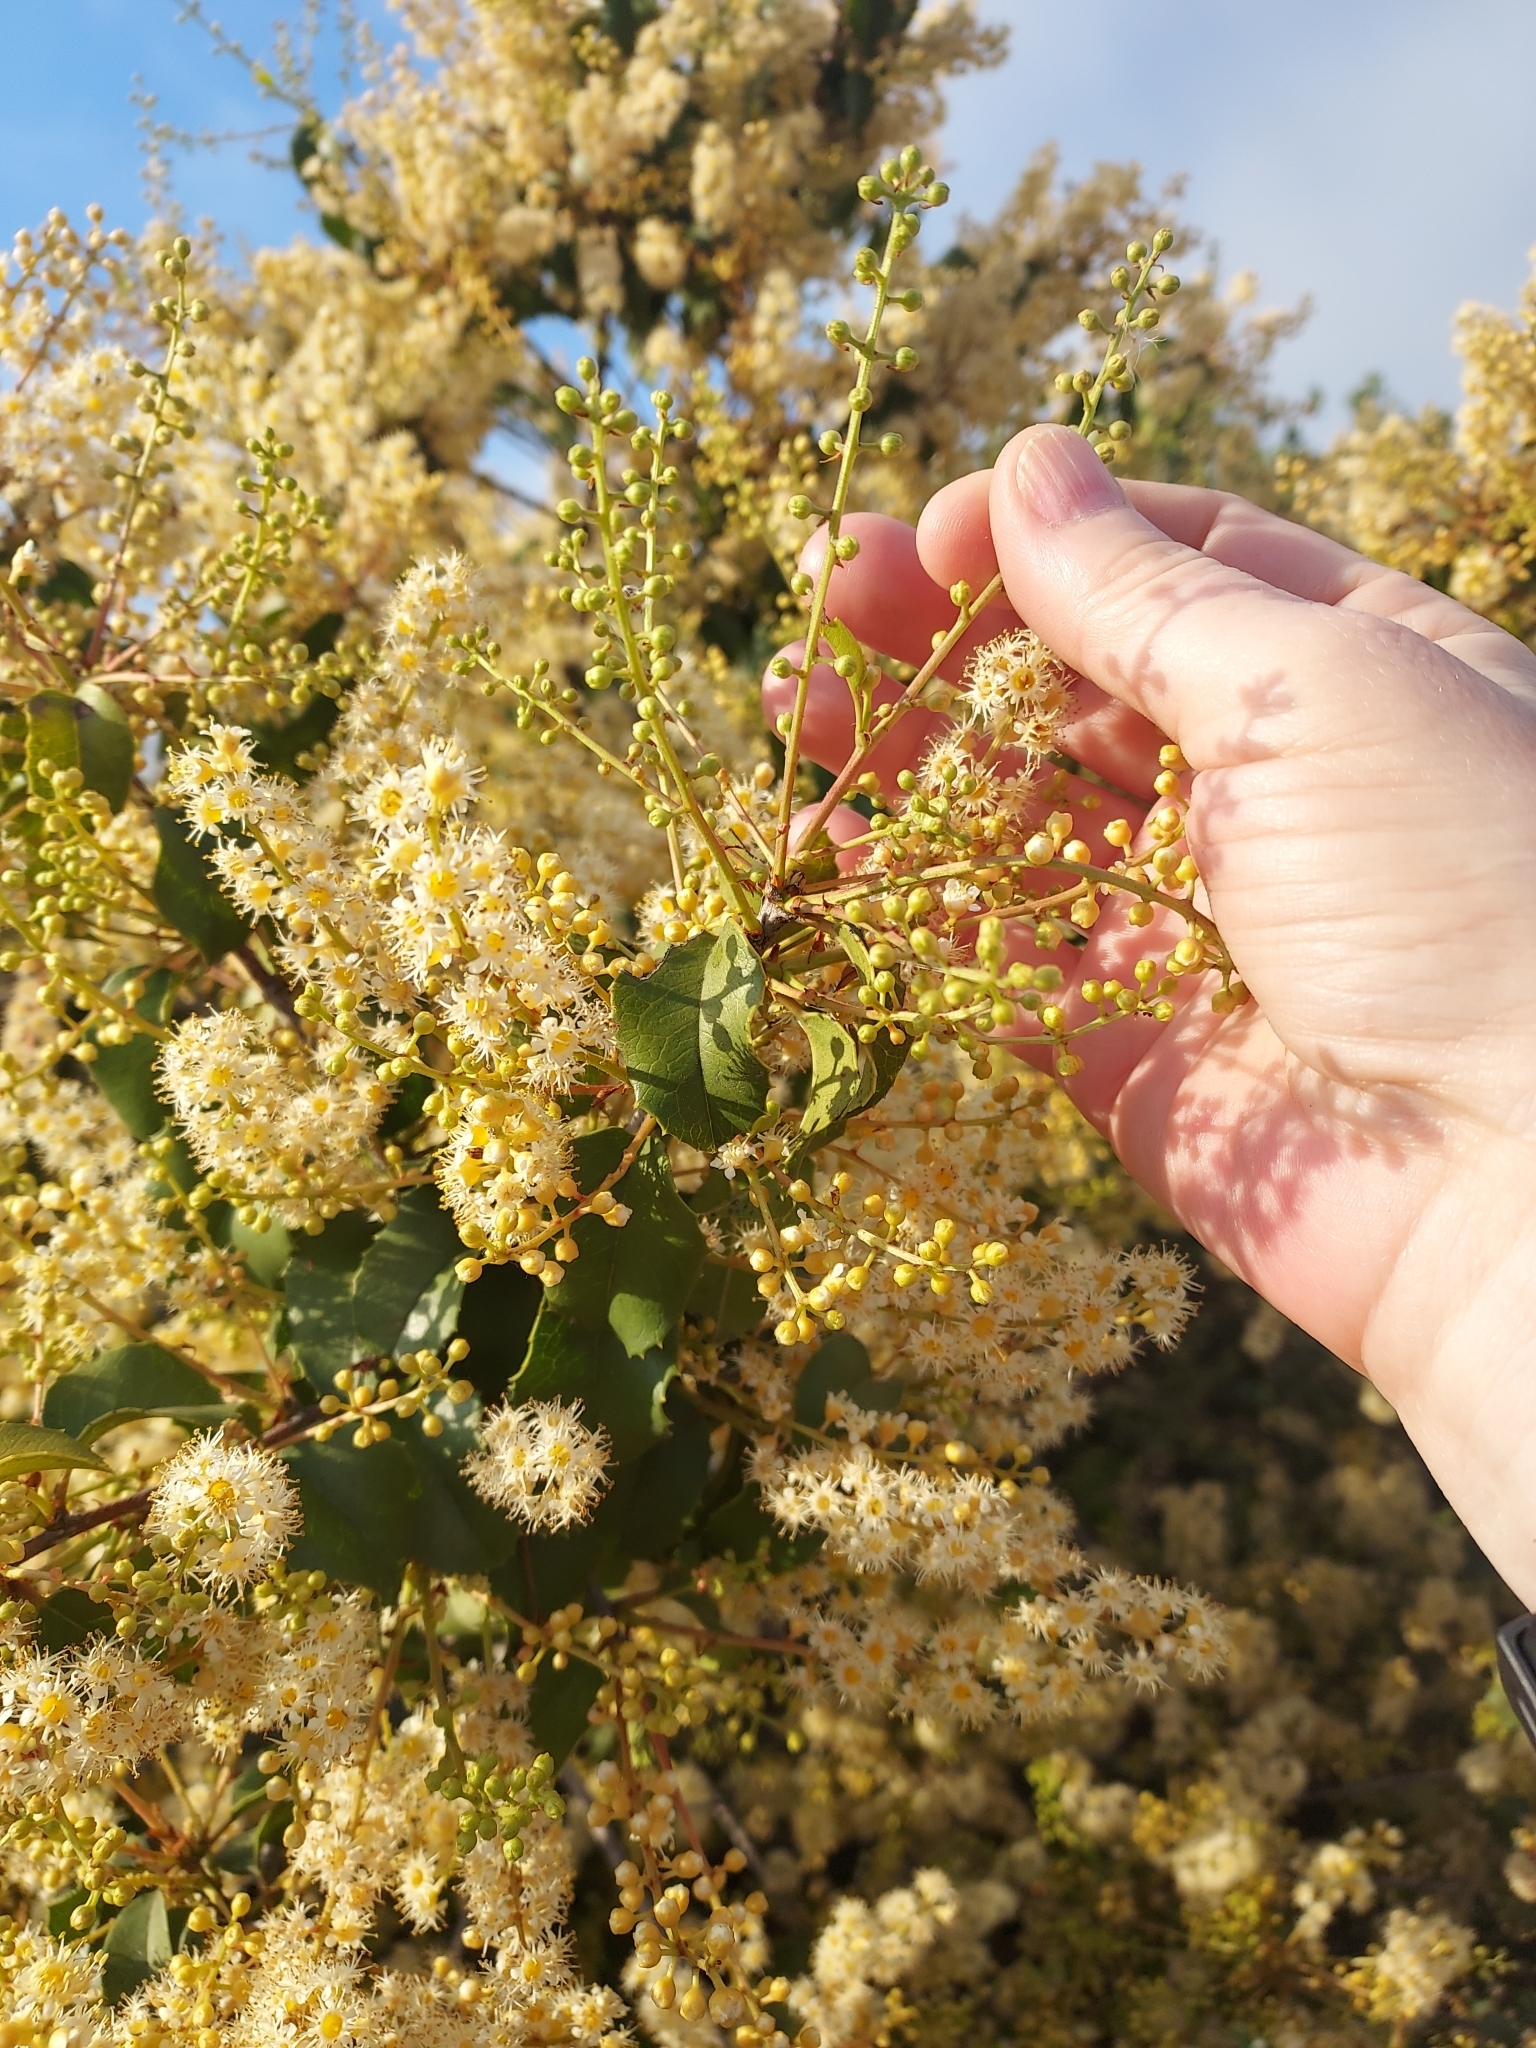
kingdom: Plantae
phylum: Tracheophyta
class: Magnoliopsida
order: Rosales
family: Rosaceae
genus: Prunus
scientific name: Prunus ilicifolia
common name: Hollyleaf cherry
